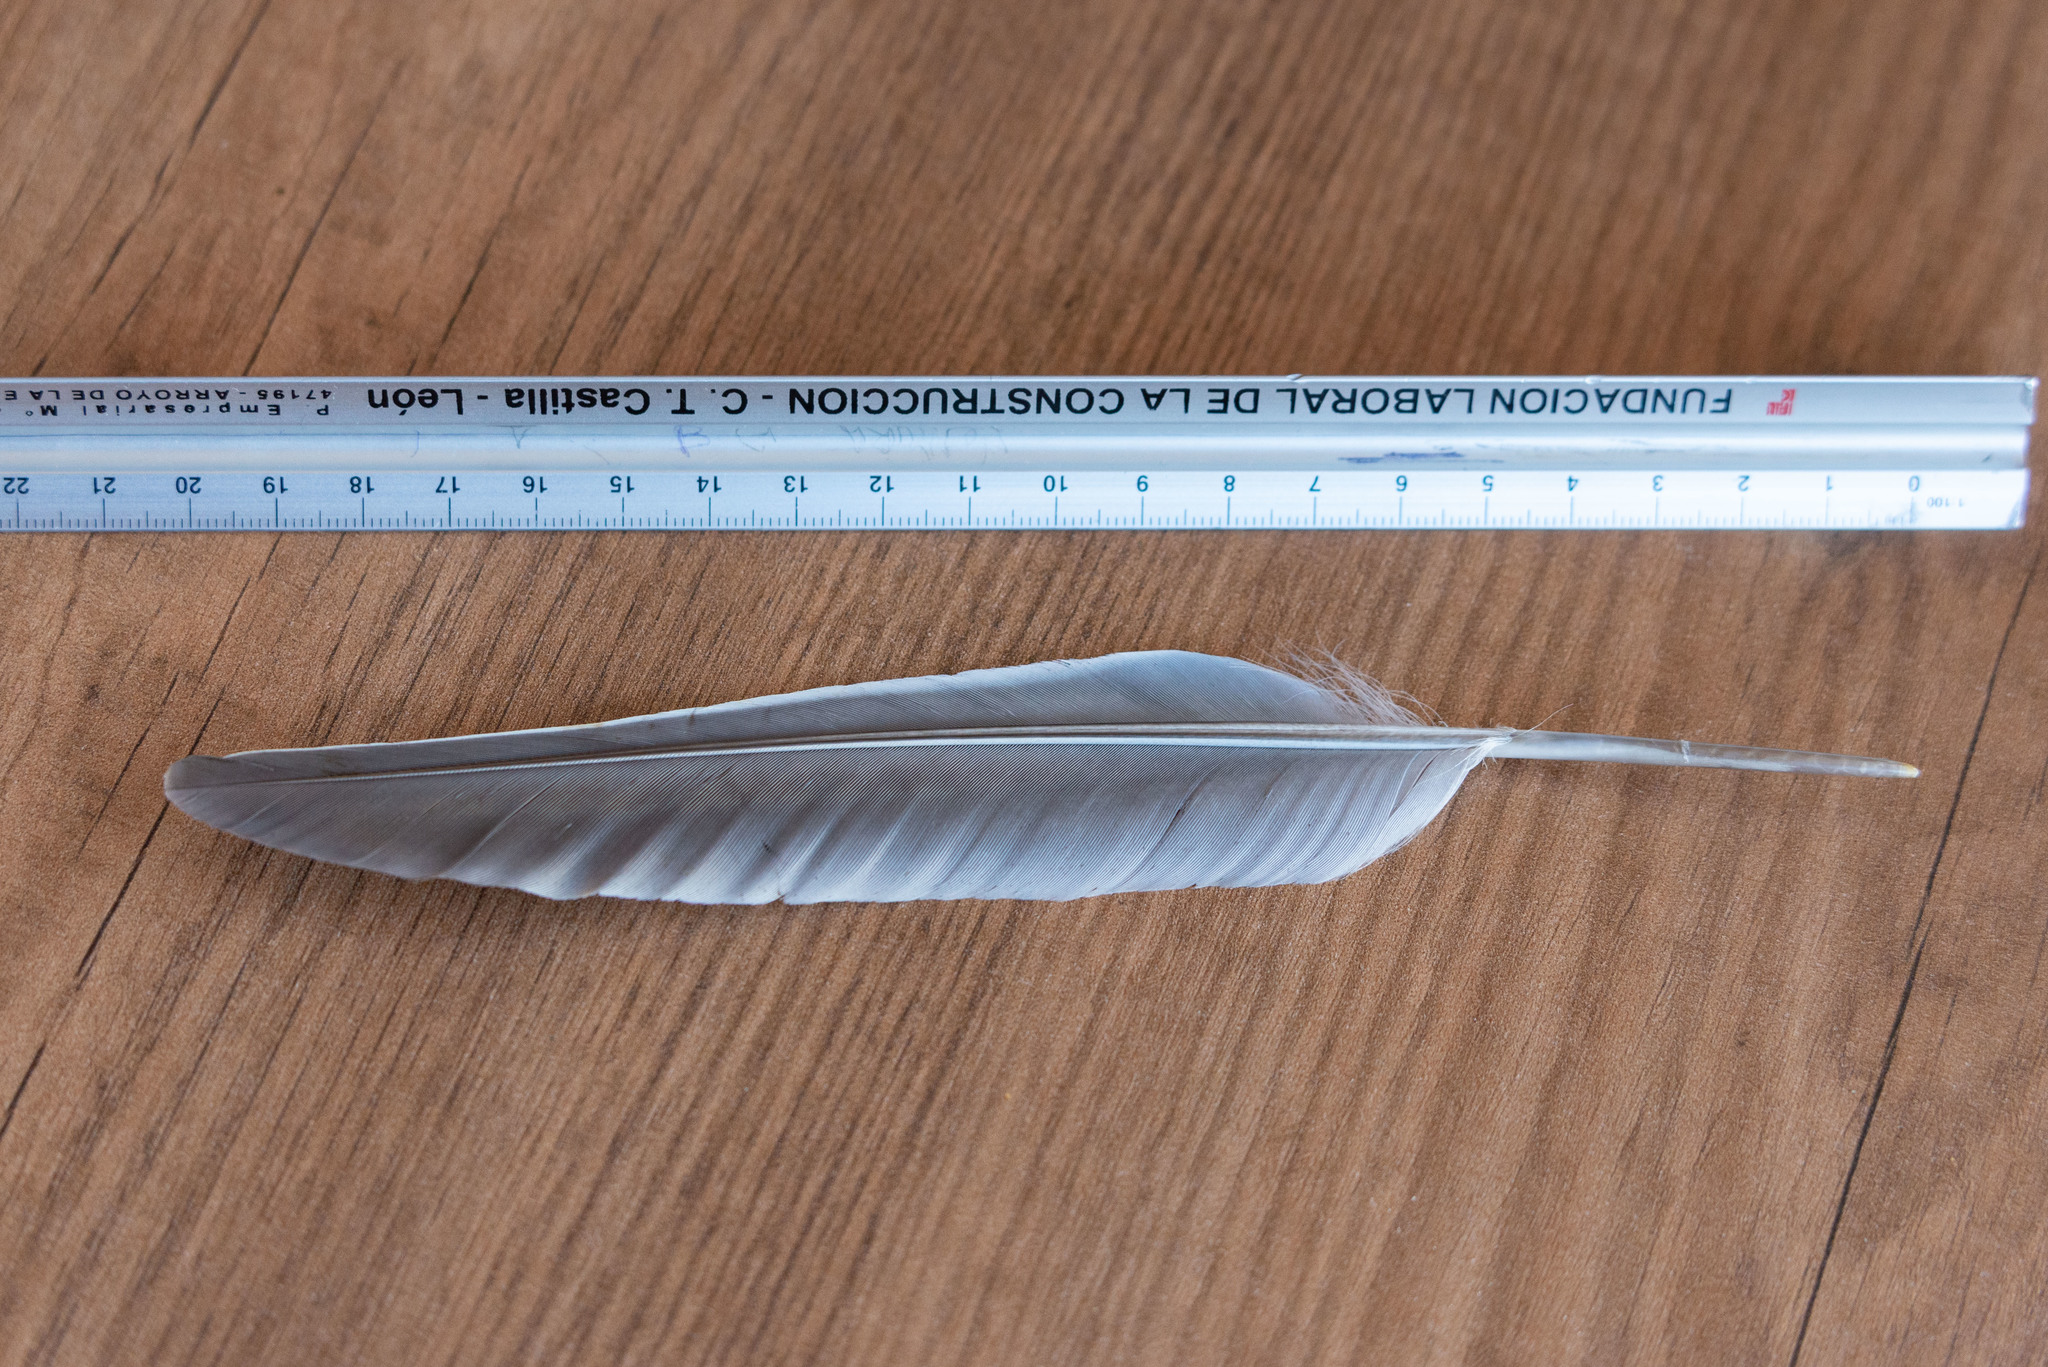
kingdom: Animalia
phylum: Chordata
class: Aves
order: Columbiformes
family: Columbidae
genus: Columba
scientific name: Columba palumbus
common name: Common wood pigeon
